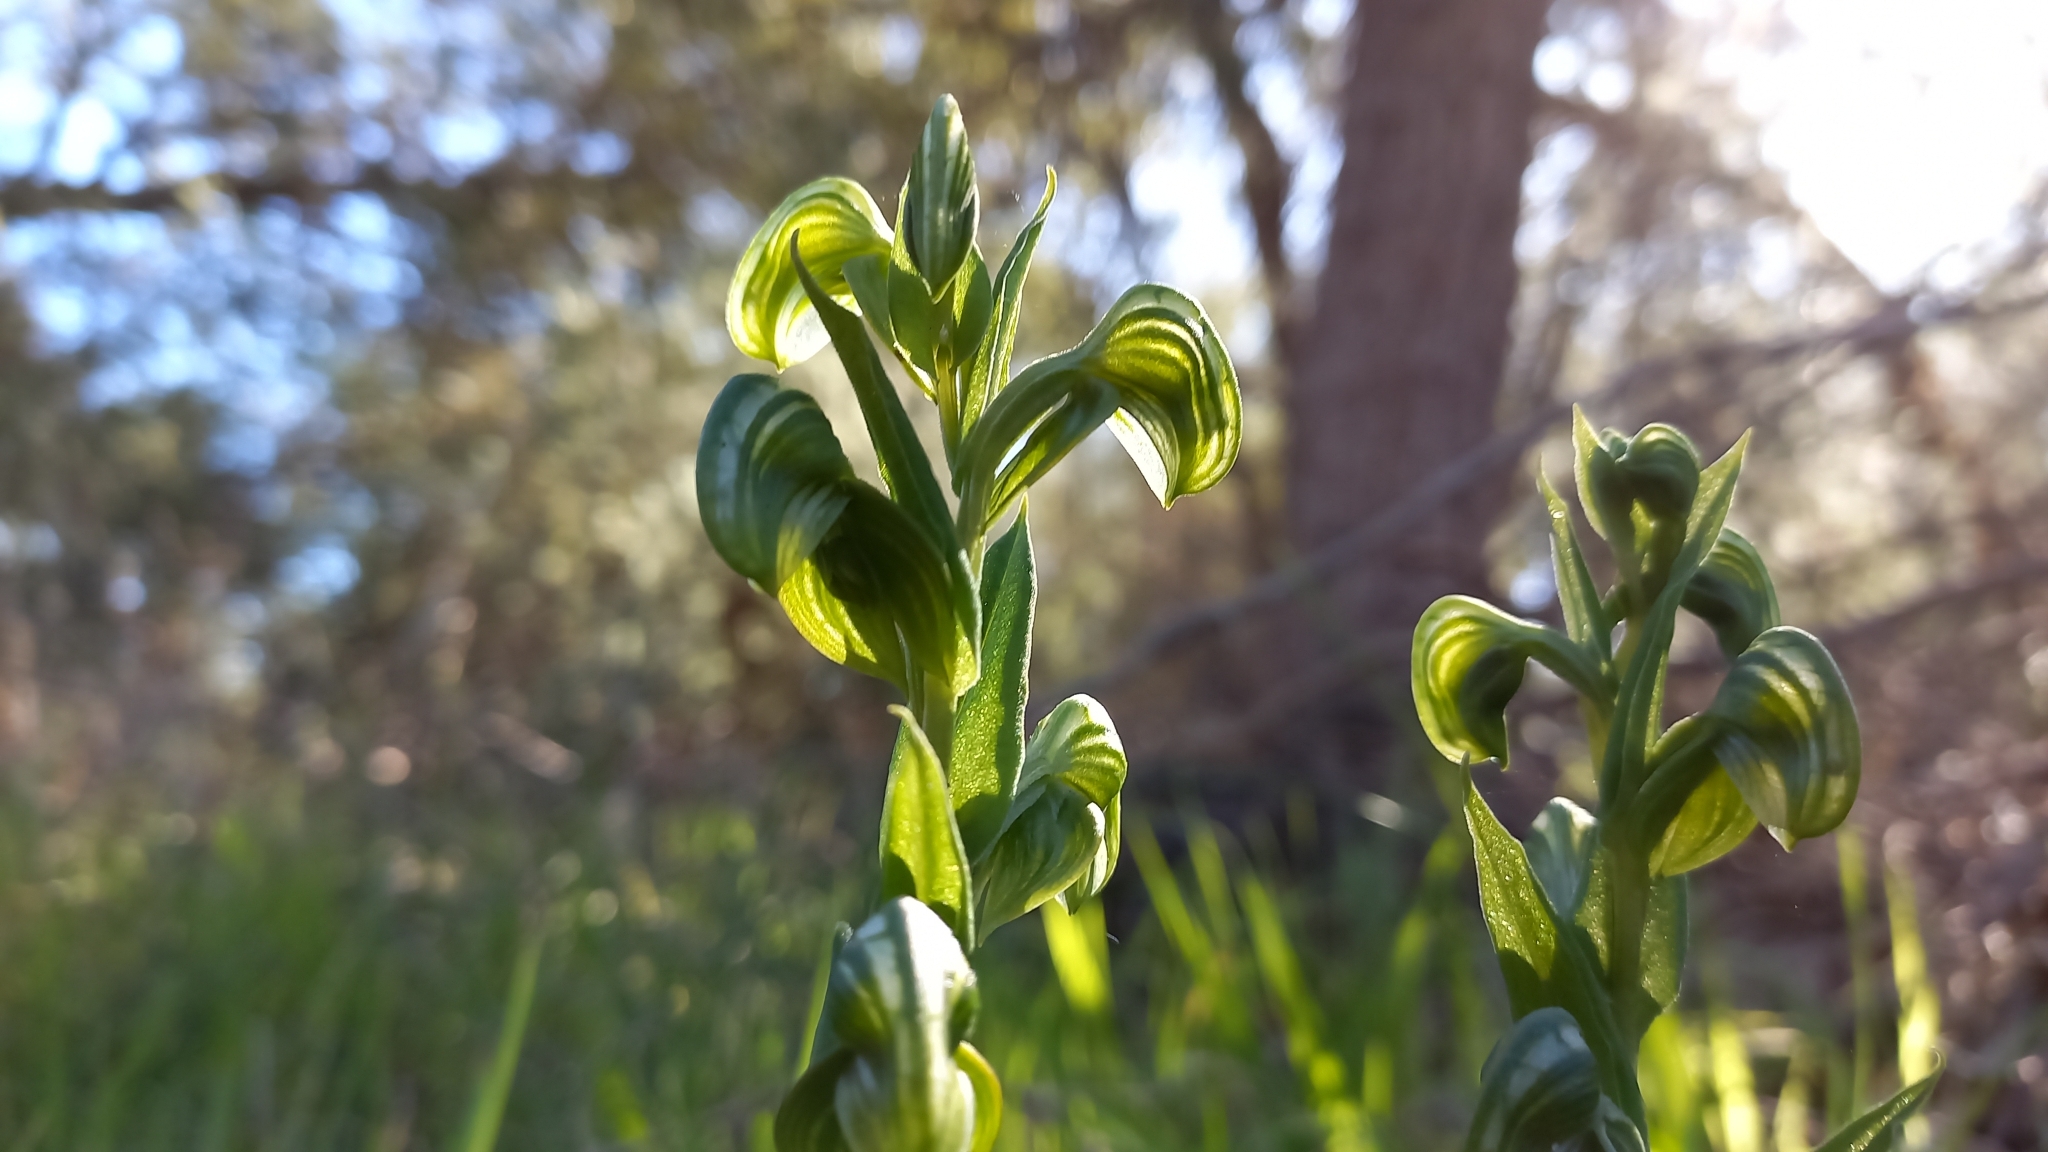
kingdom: Plantae
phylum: Tracheophyta
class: Liliopsida
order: Asparagales
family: Orchidaceae
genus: Pterostylis
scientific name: Pterostylis vittata
